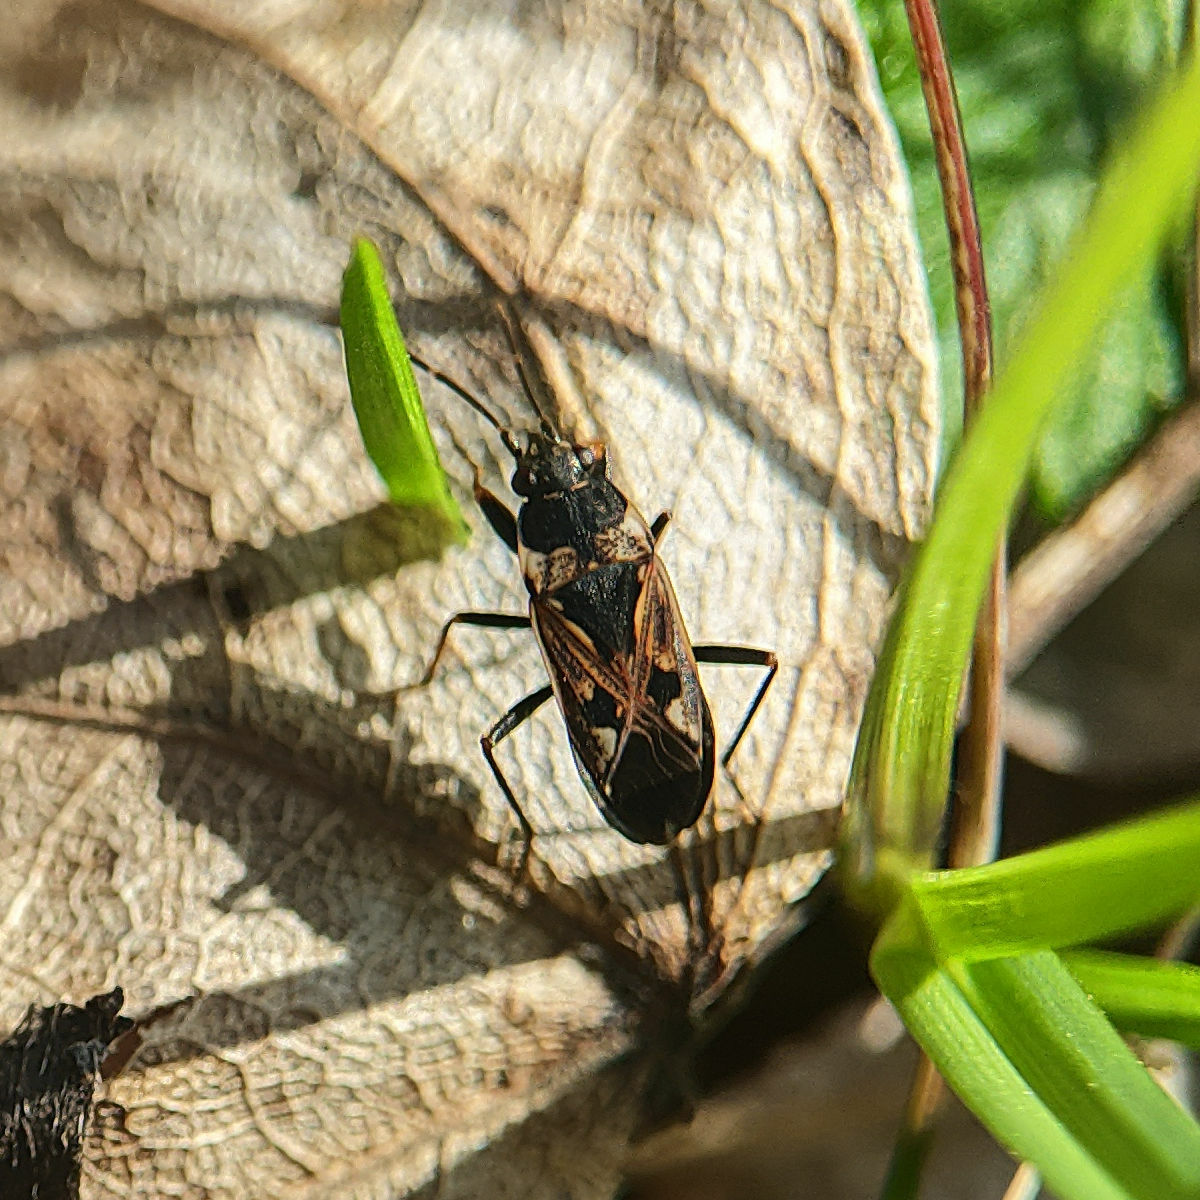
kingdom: Animalia
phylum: Arthropoda
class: Insecta
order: Hemiptera
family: Rhyparochromidae
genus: Rhyparochromus
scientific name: Rhyparochromus vulgaris
